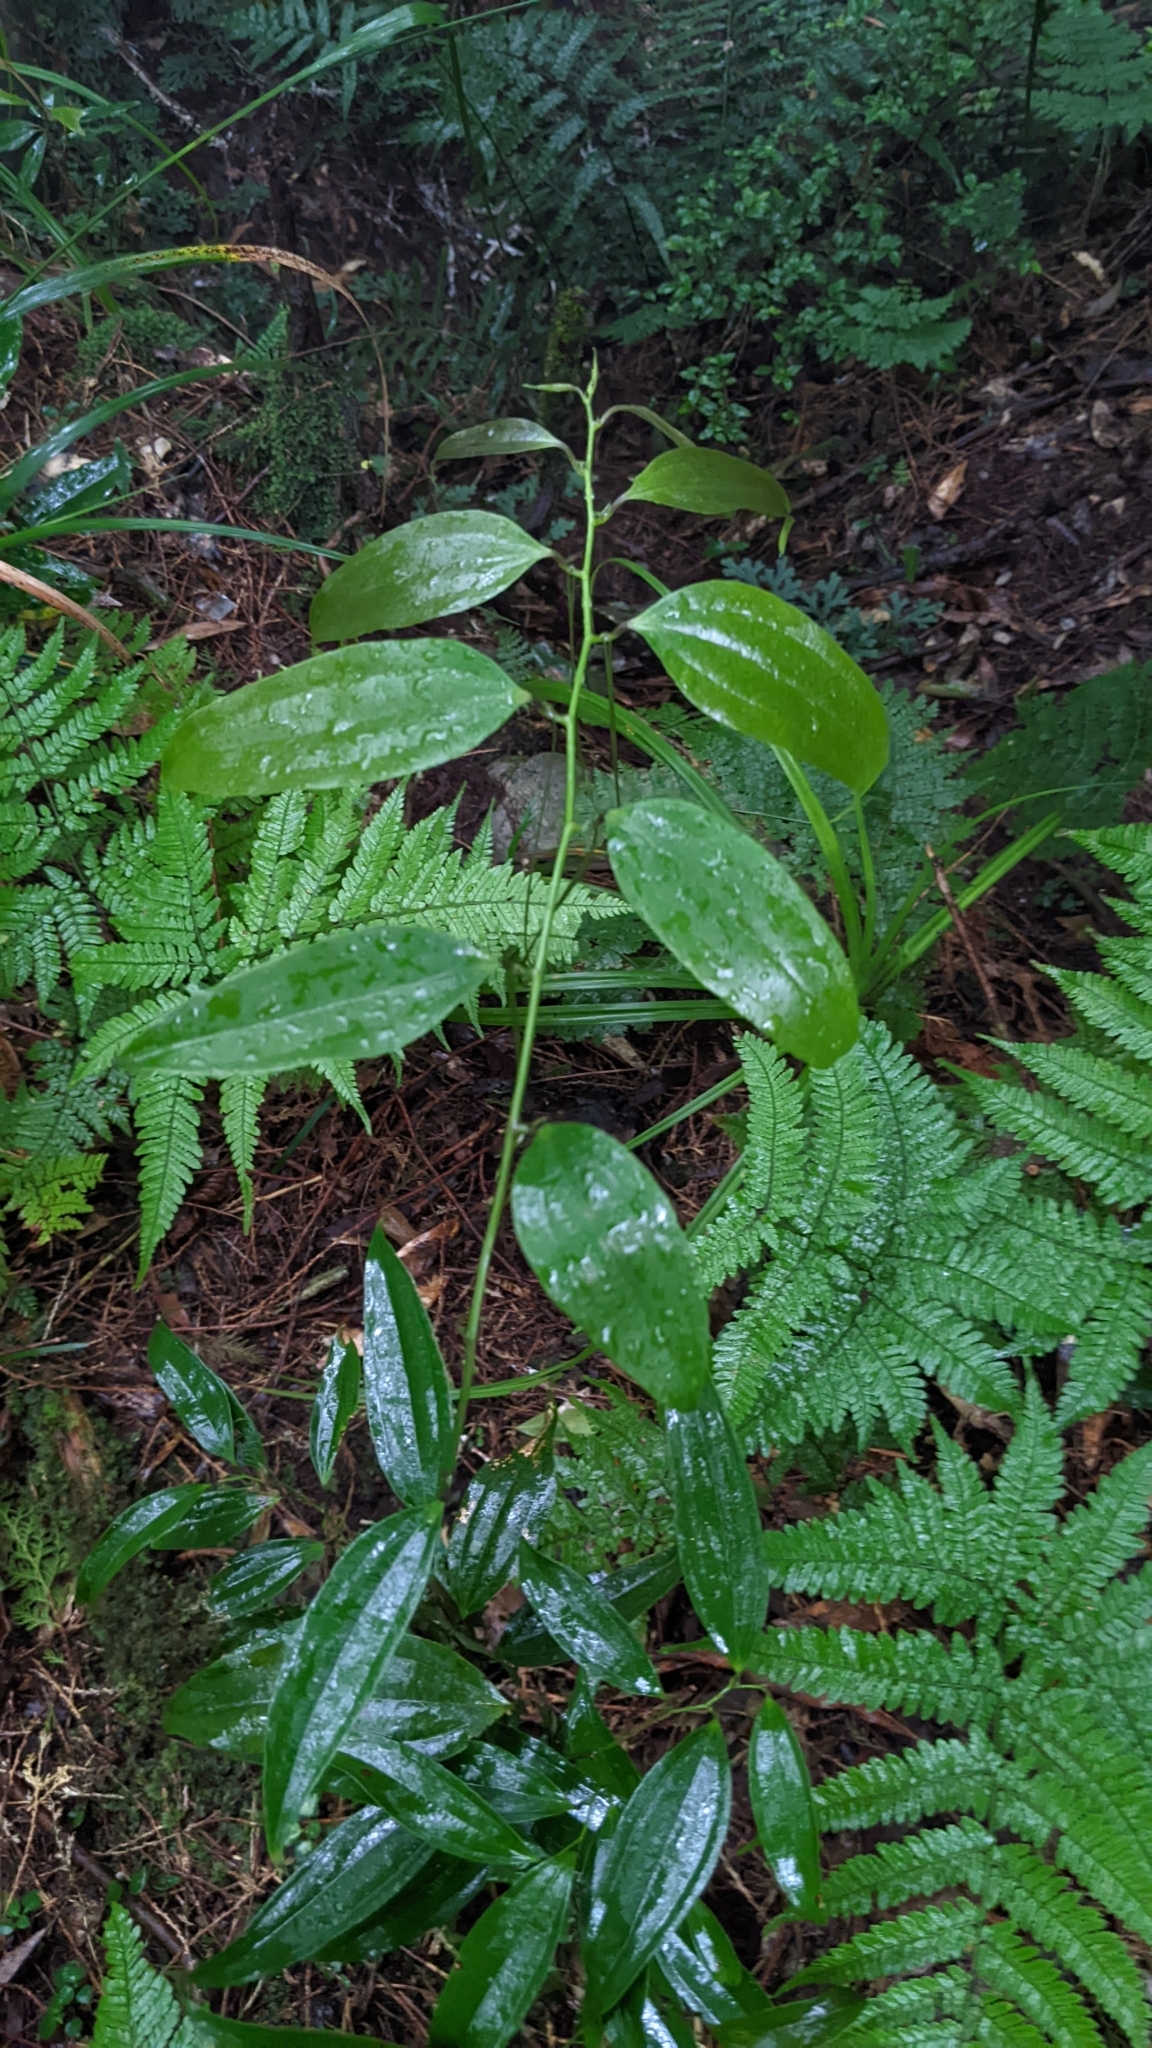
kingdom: Plantae
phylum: Tracheophyta
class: Liliopsida
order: Liliales
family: Smilacaceae
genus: Smilax
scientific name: Smilax lanceifolia
